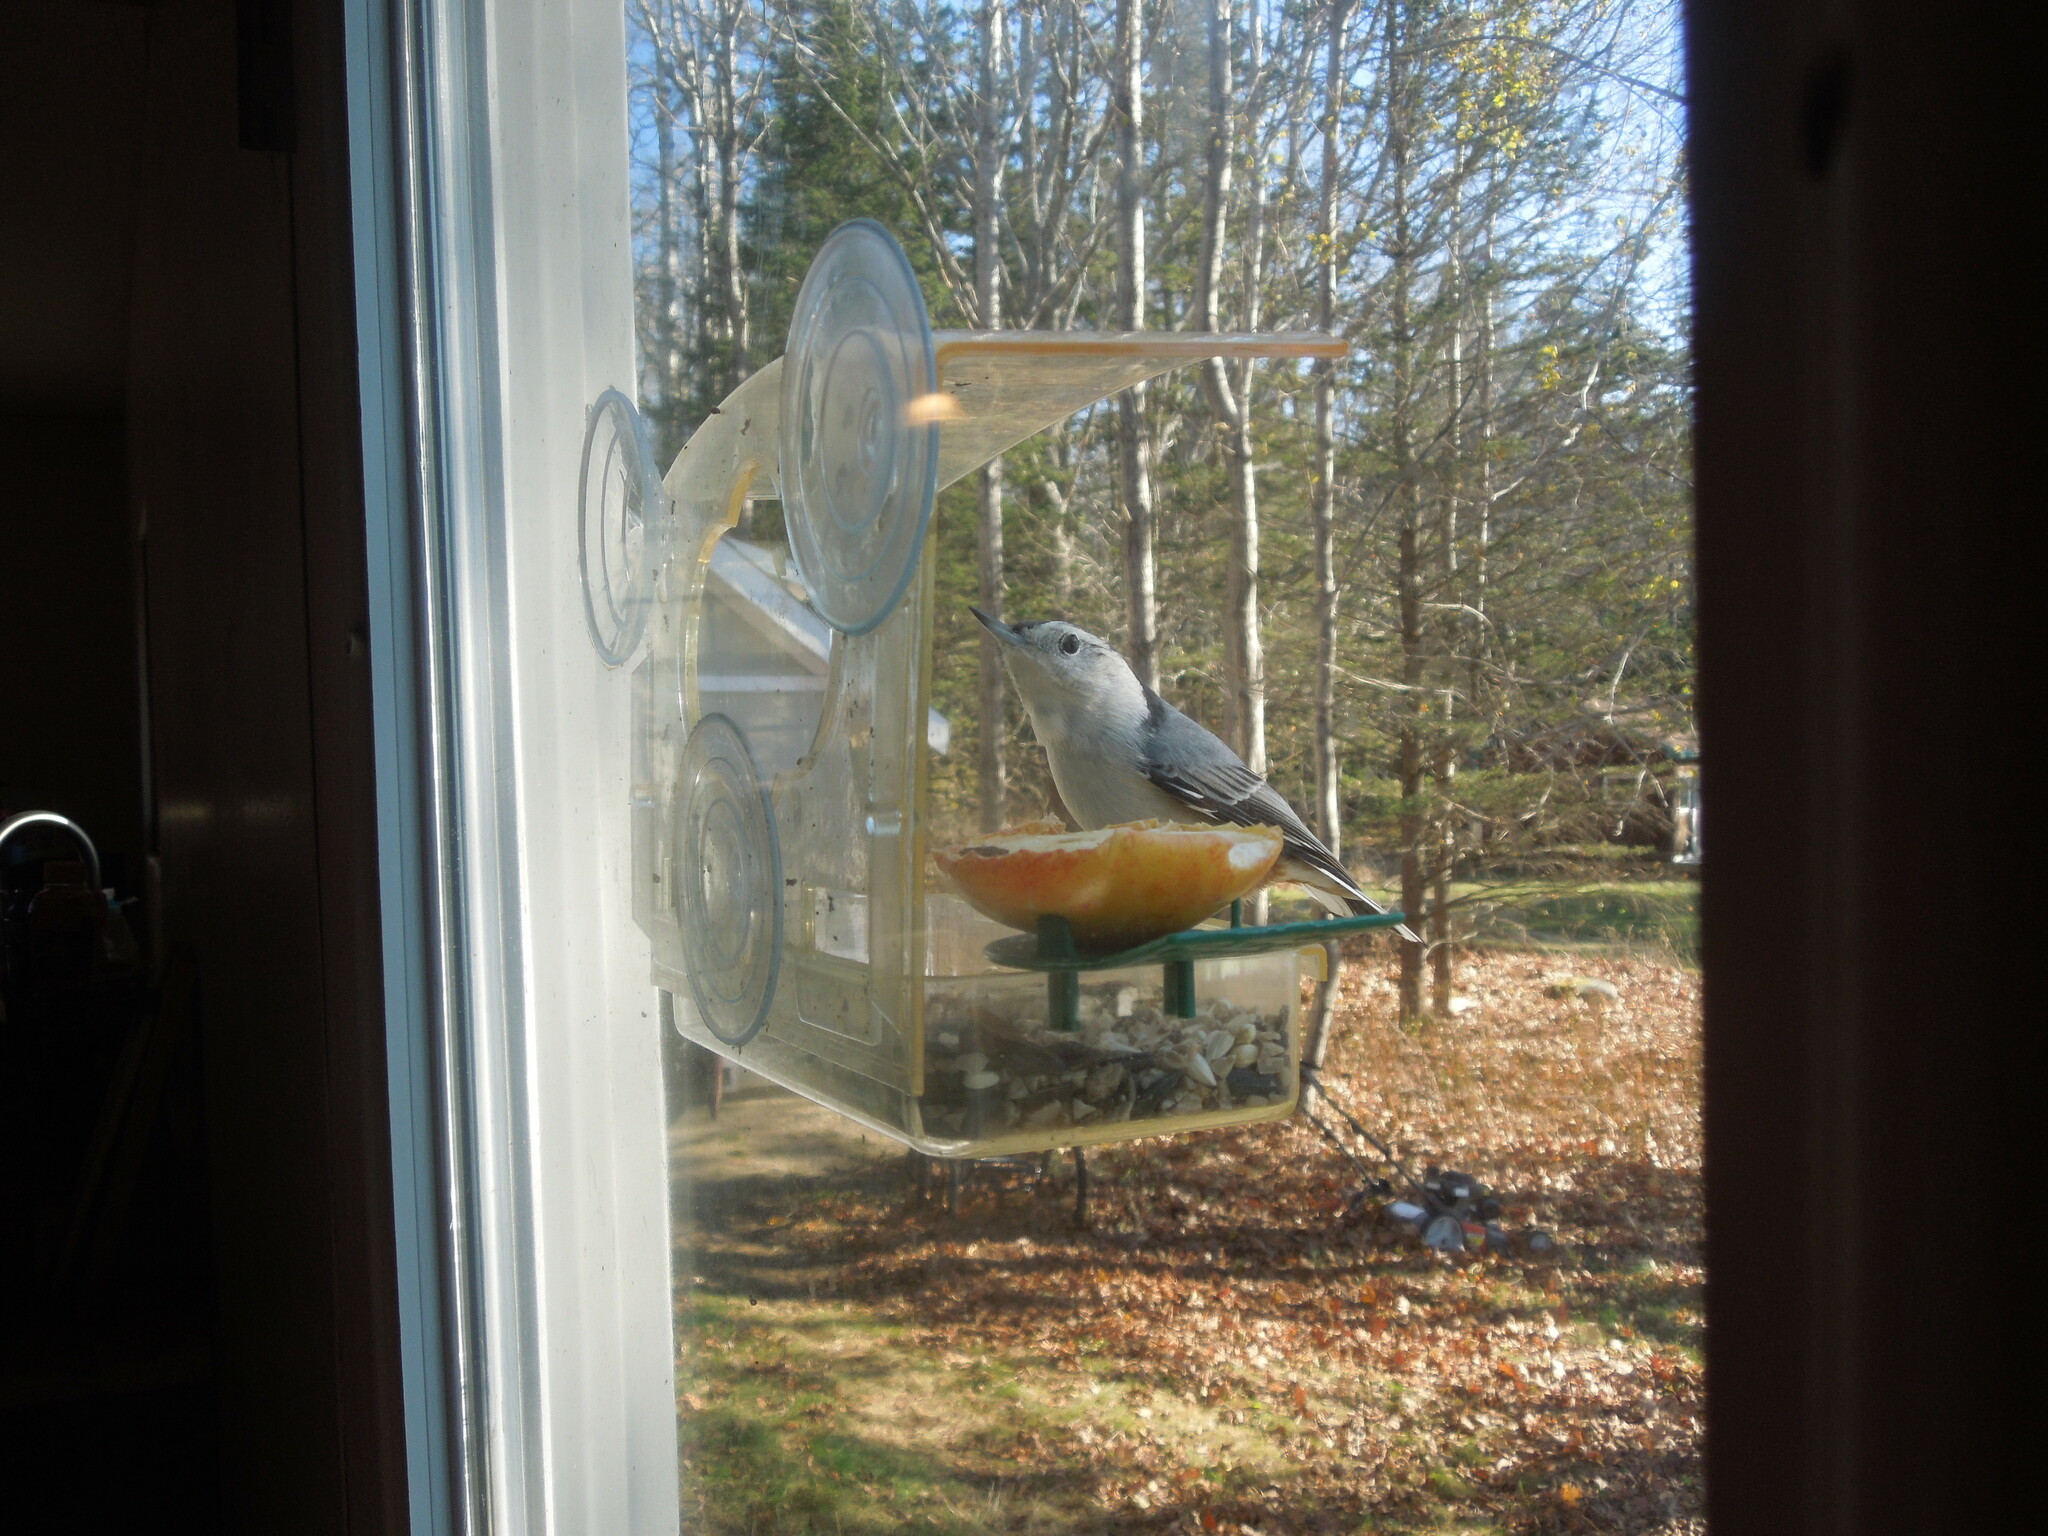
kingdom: Animalia
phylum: Chordata
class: Aves
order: Passeriformes
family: Sittidae
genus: Sitta
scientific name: Sitta carolinensis
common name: White-breasted nuthatch
